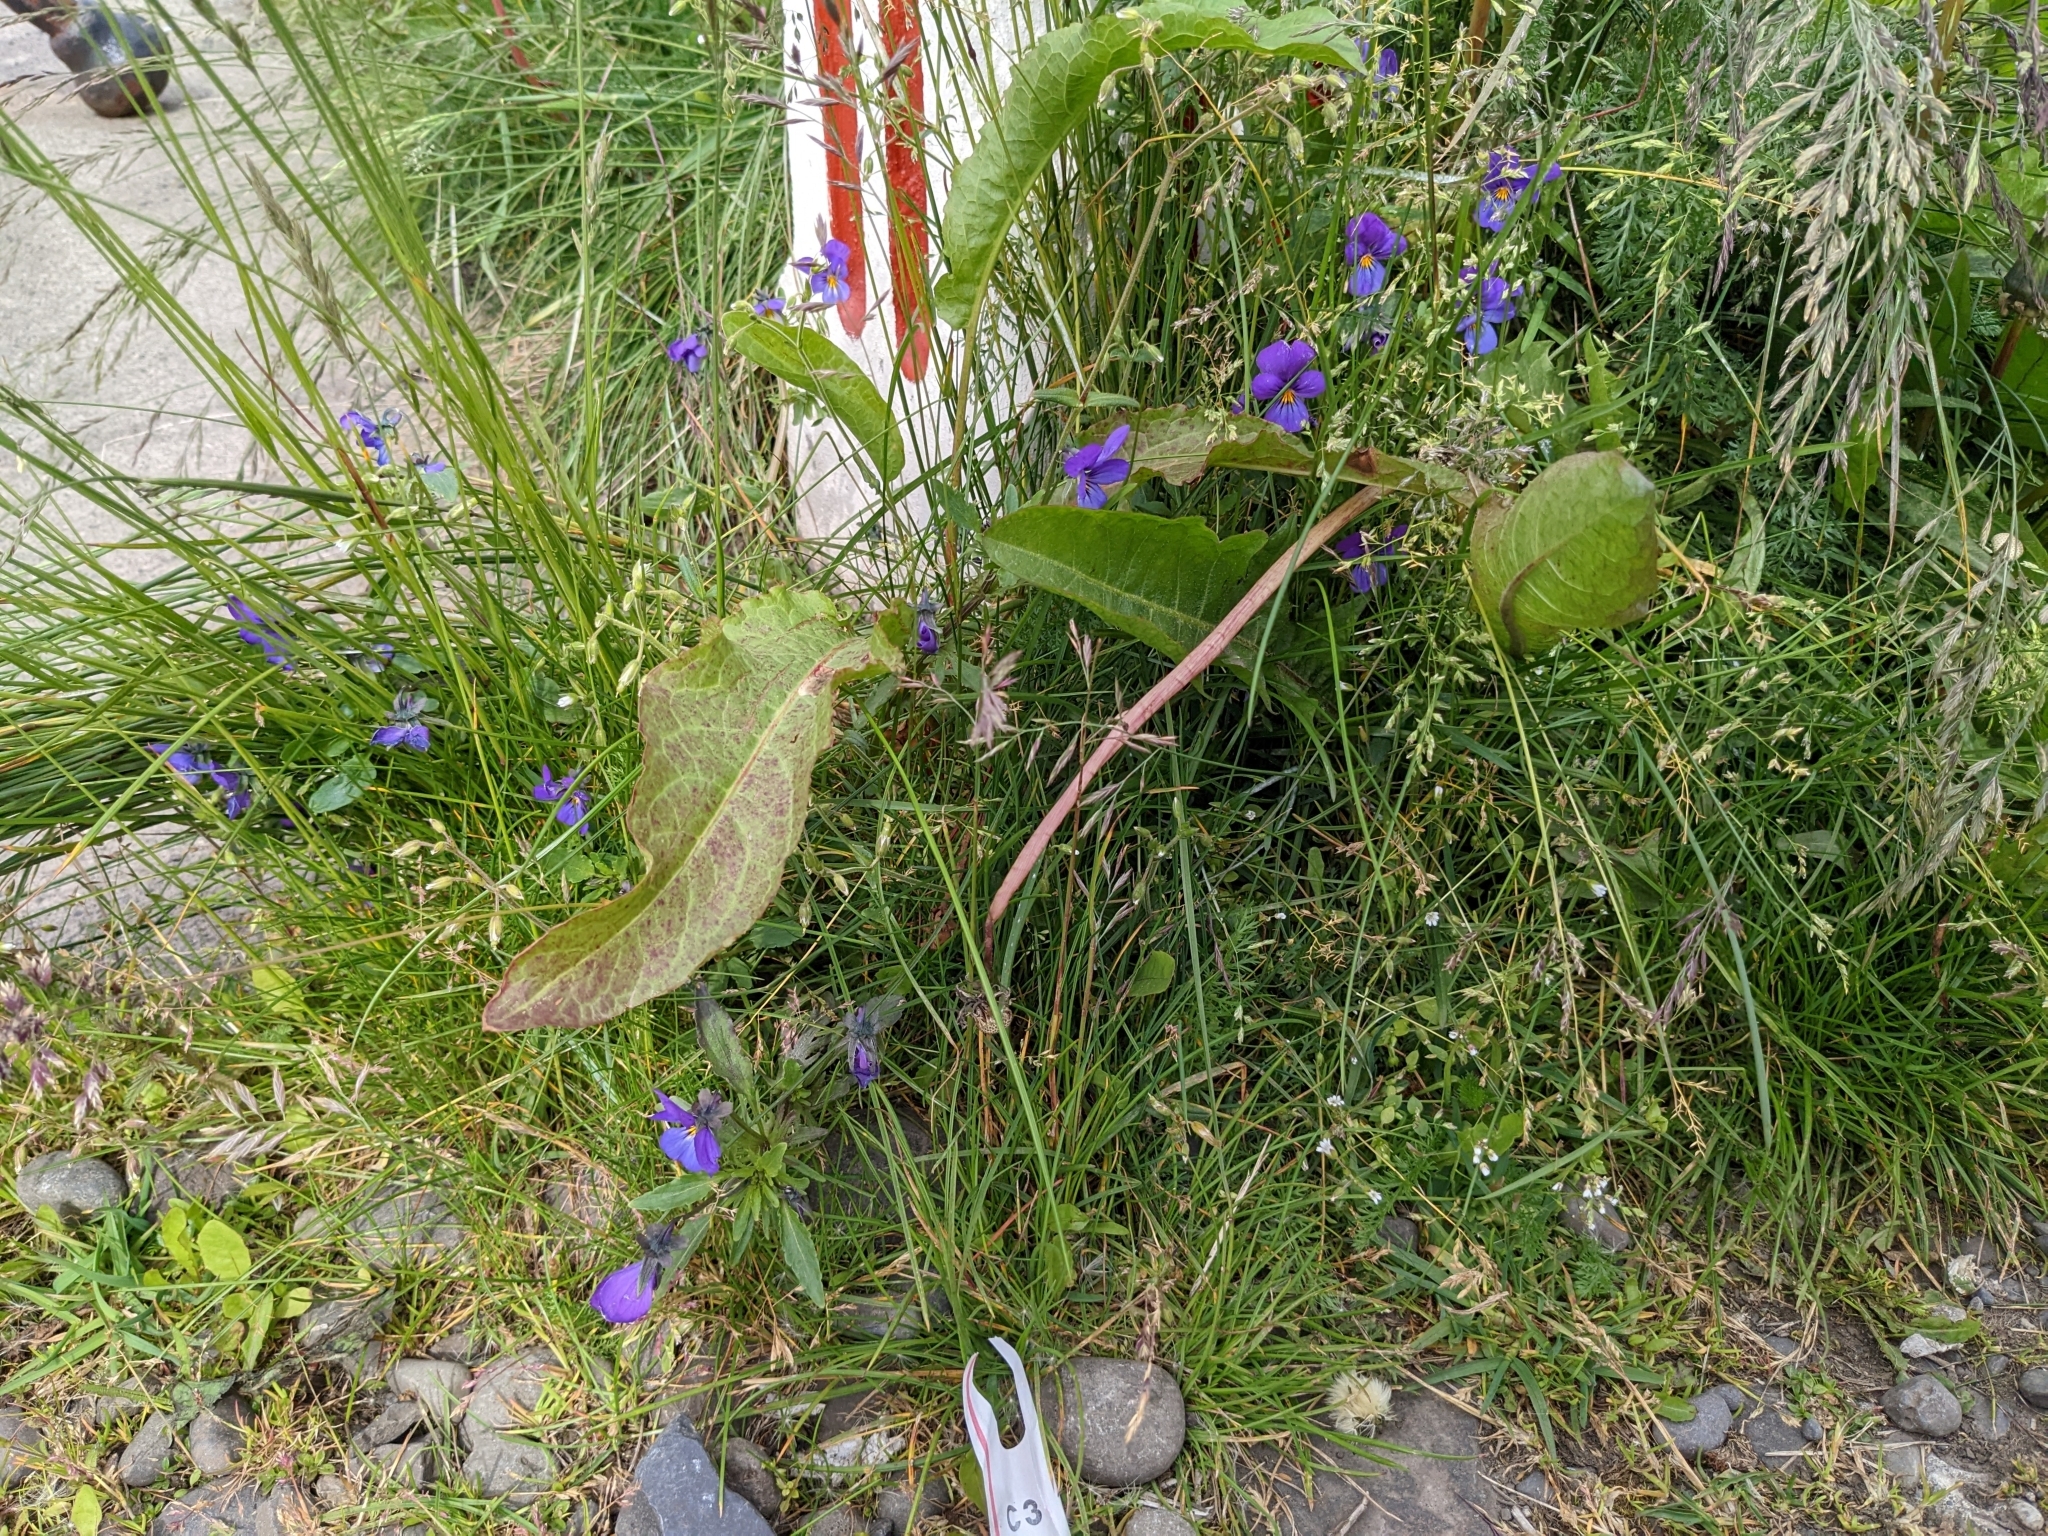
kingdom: Plantae
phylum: Tracheophyta
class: Magnoliopsida
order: Malpighiales
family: Violaceae
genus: Viola
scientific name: Viola tricolor
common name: Pansy
